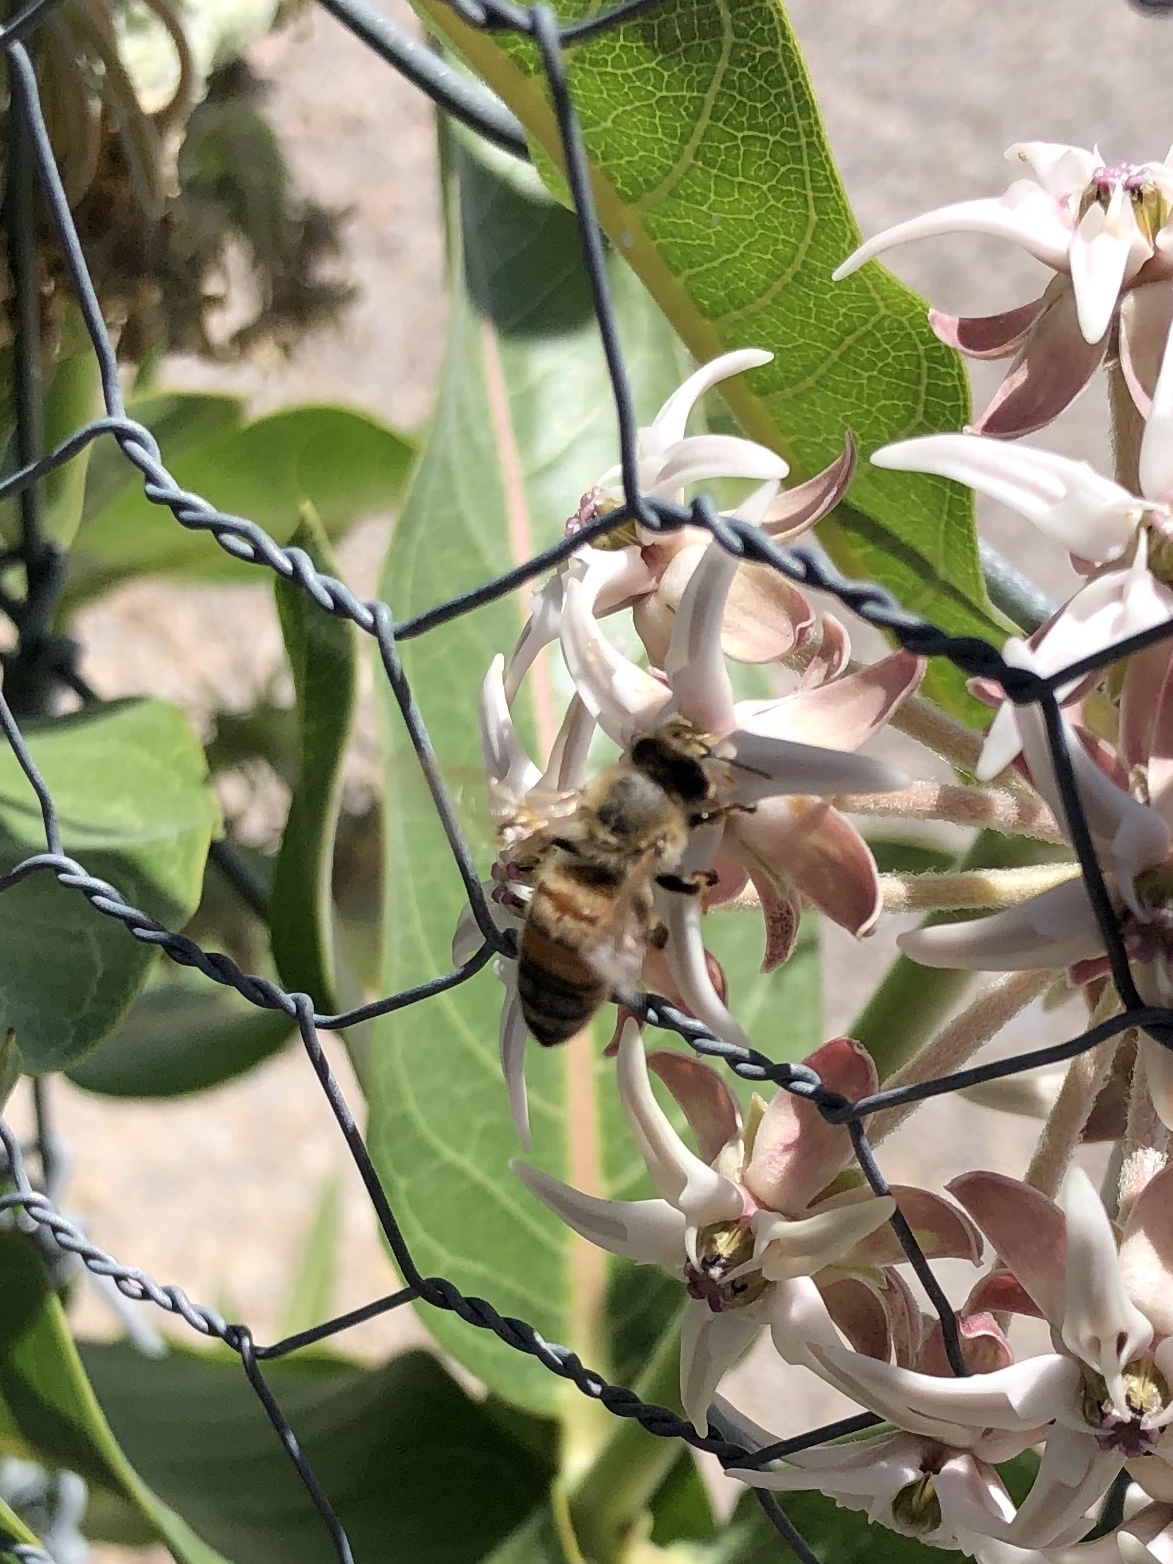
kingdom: Animalia
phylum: Arthropoda
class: Insecta
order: Hymenoptera
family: Apidae
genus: Apis
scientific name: Apis mellifera
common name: Honey bee
